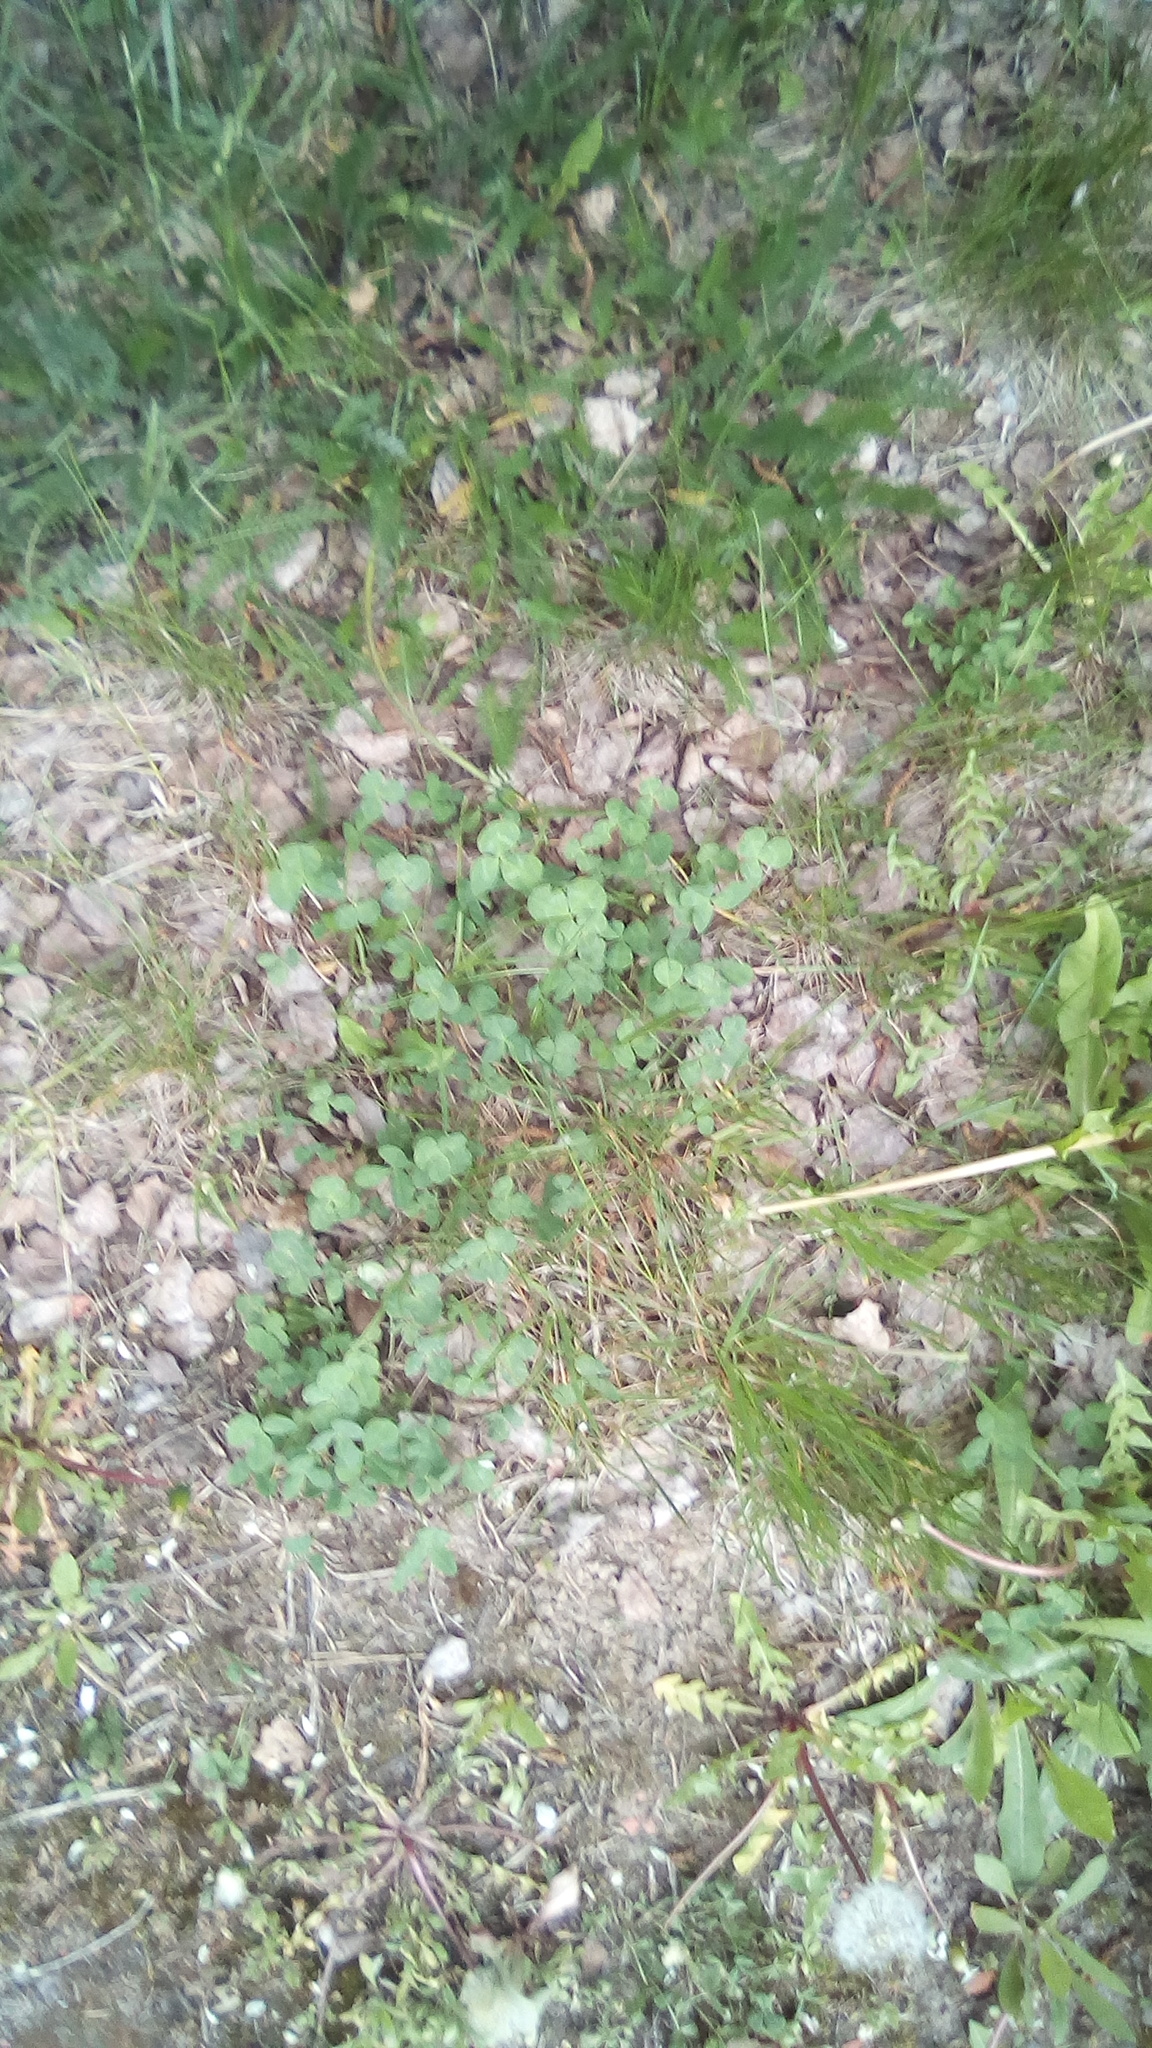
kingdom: Plantae
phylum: Tracheophyta
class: Magnoliopsida
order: Fabales
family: Fabaceae
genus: Trifolium
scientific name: Trifolium repens
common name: White clover
